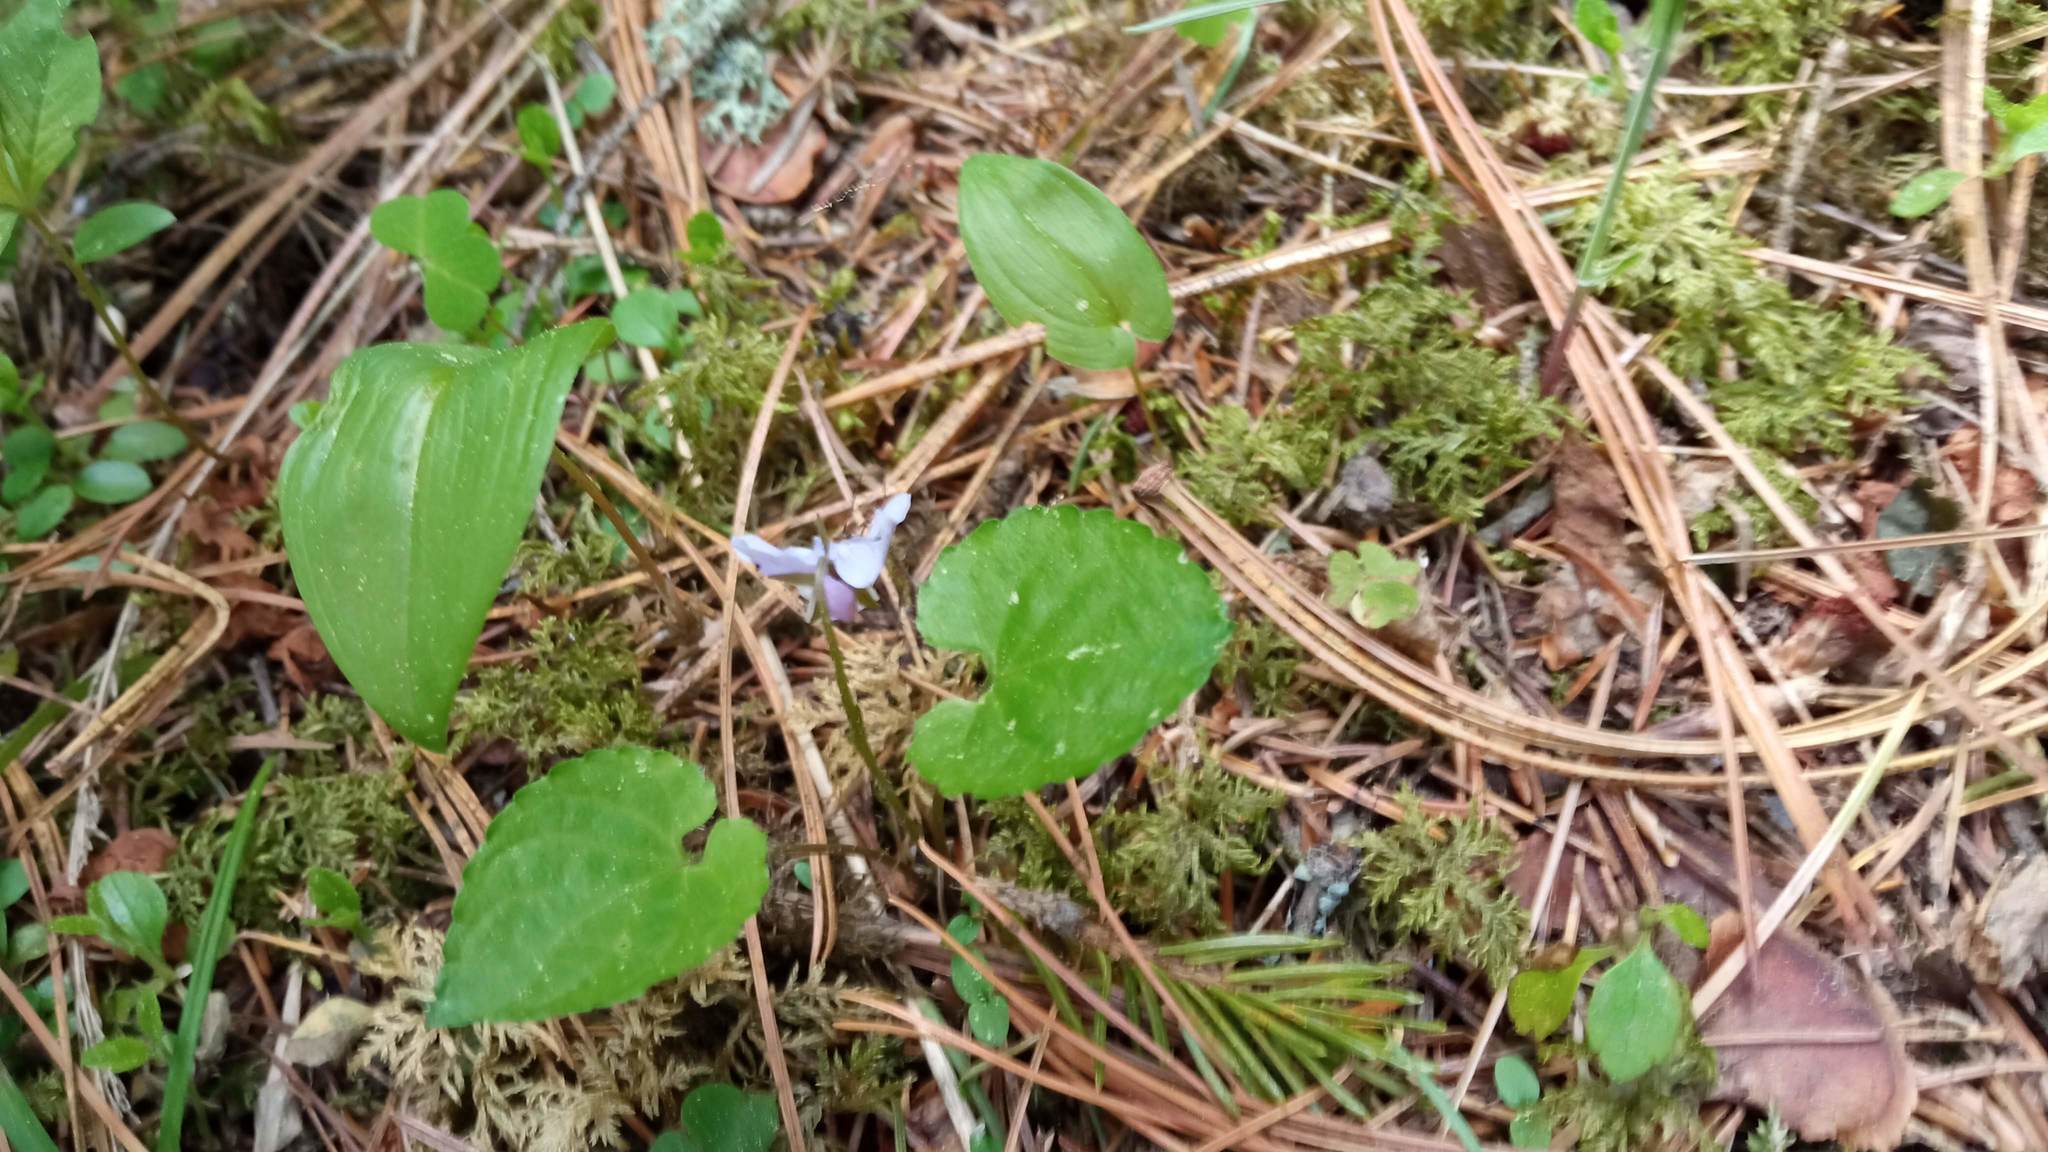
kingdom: Plantae
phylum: Tracheophyta
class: Magnoliopsida
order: Malpighiales
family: Violaceae
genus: Viola
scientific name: Viola selkirkii
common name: Selkirk's violet
